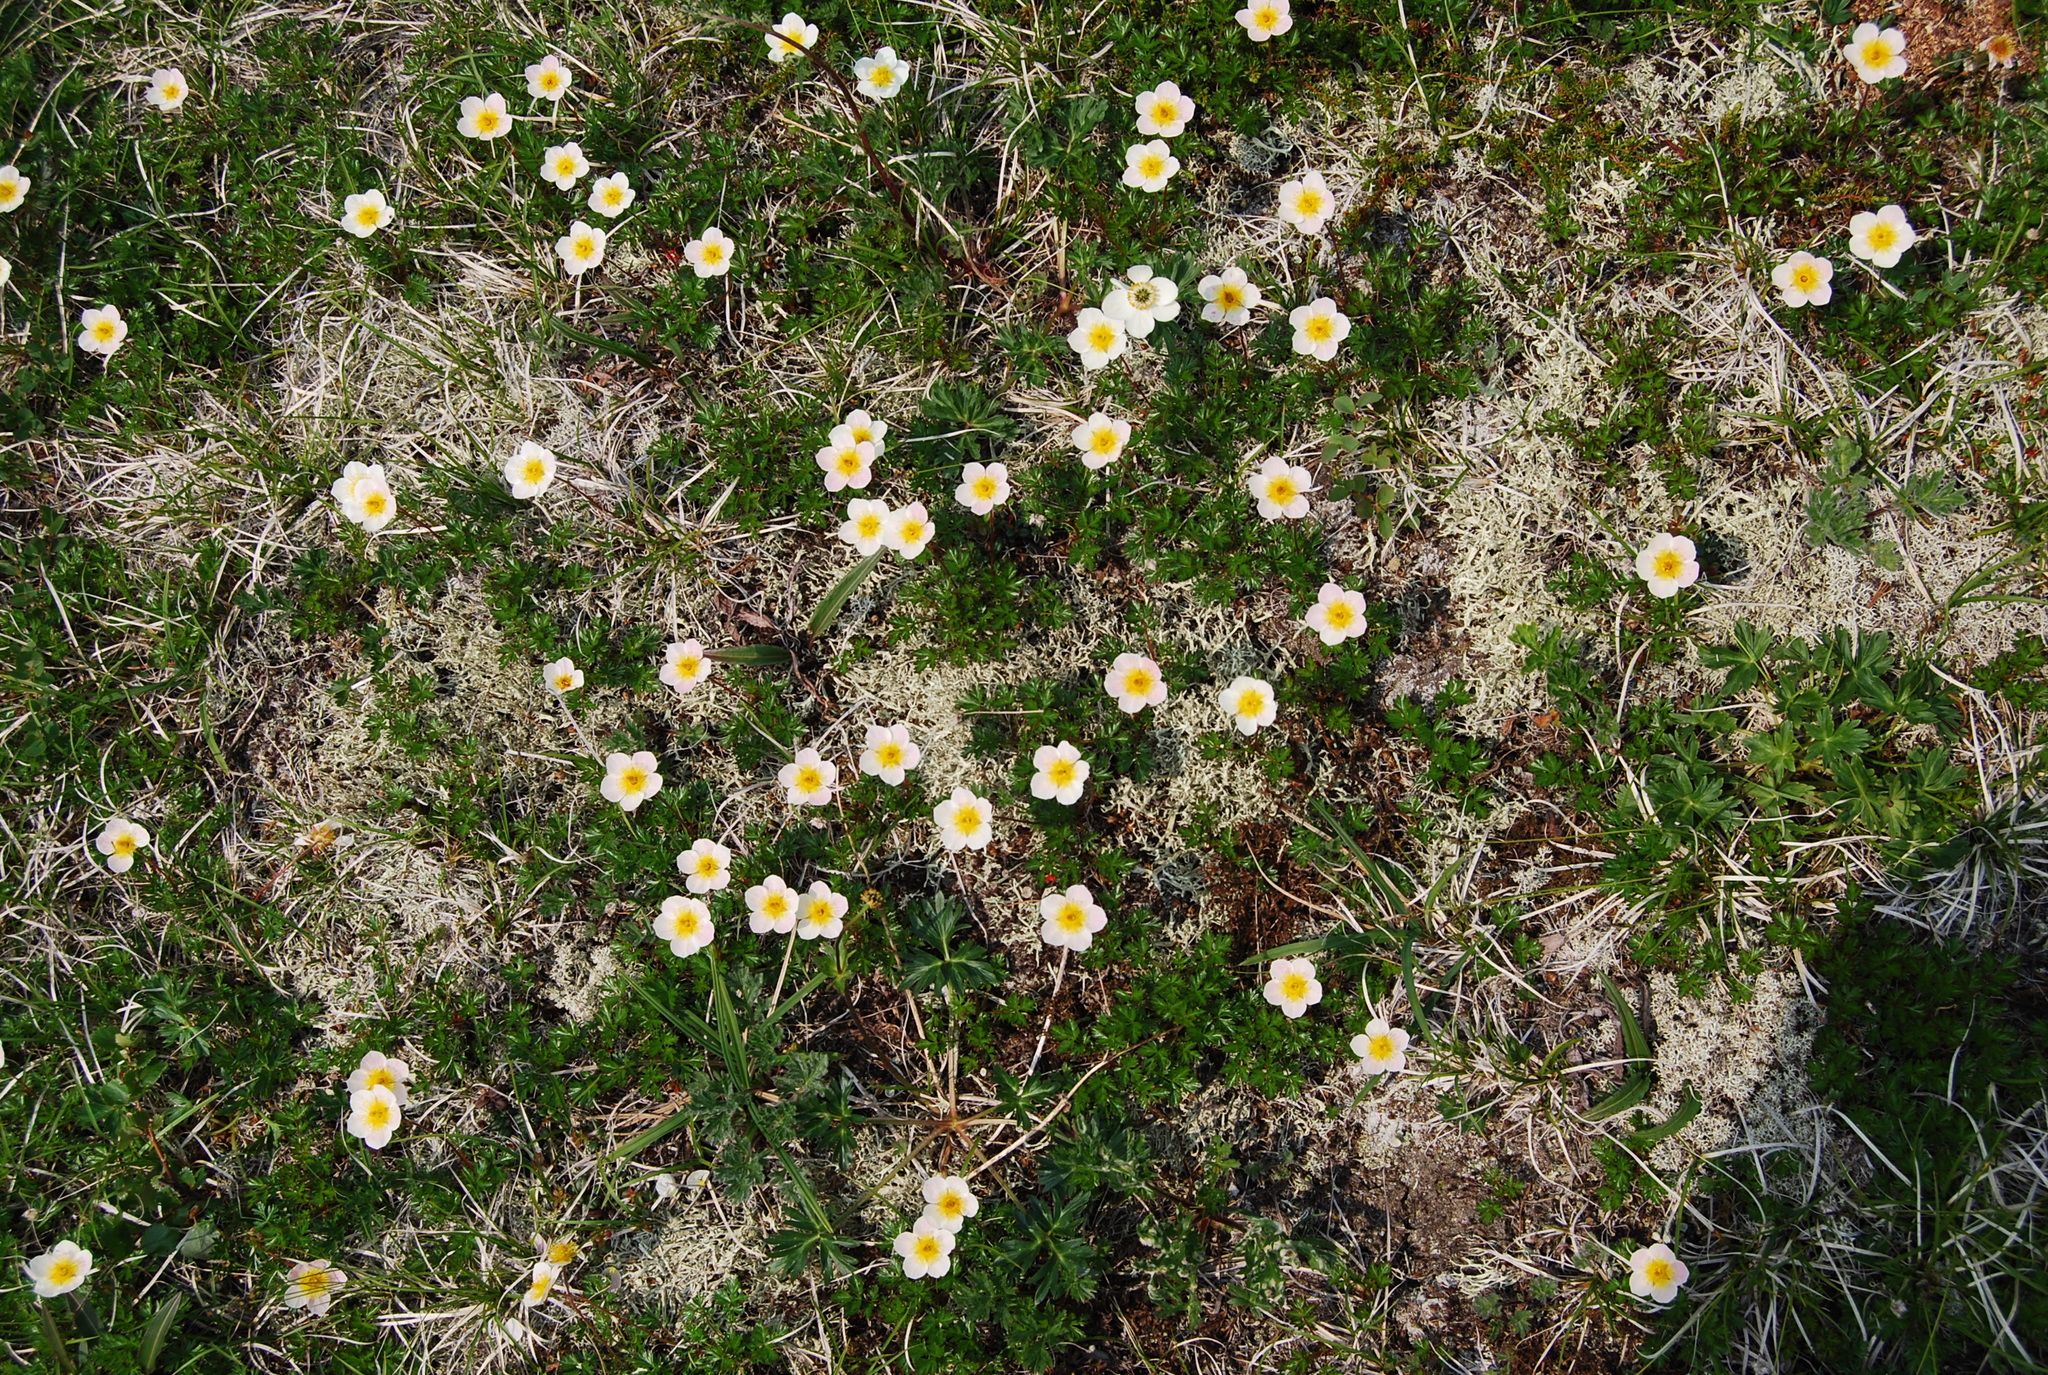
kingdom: Plantae
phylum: Tracheophyta
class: Magnoliopsida
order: Rosales
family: Rosaceae
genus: Sieversia
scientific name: Sieversia pusilla
